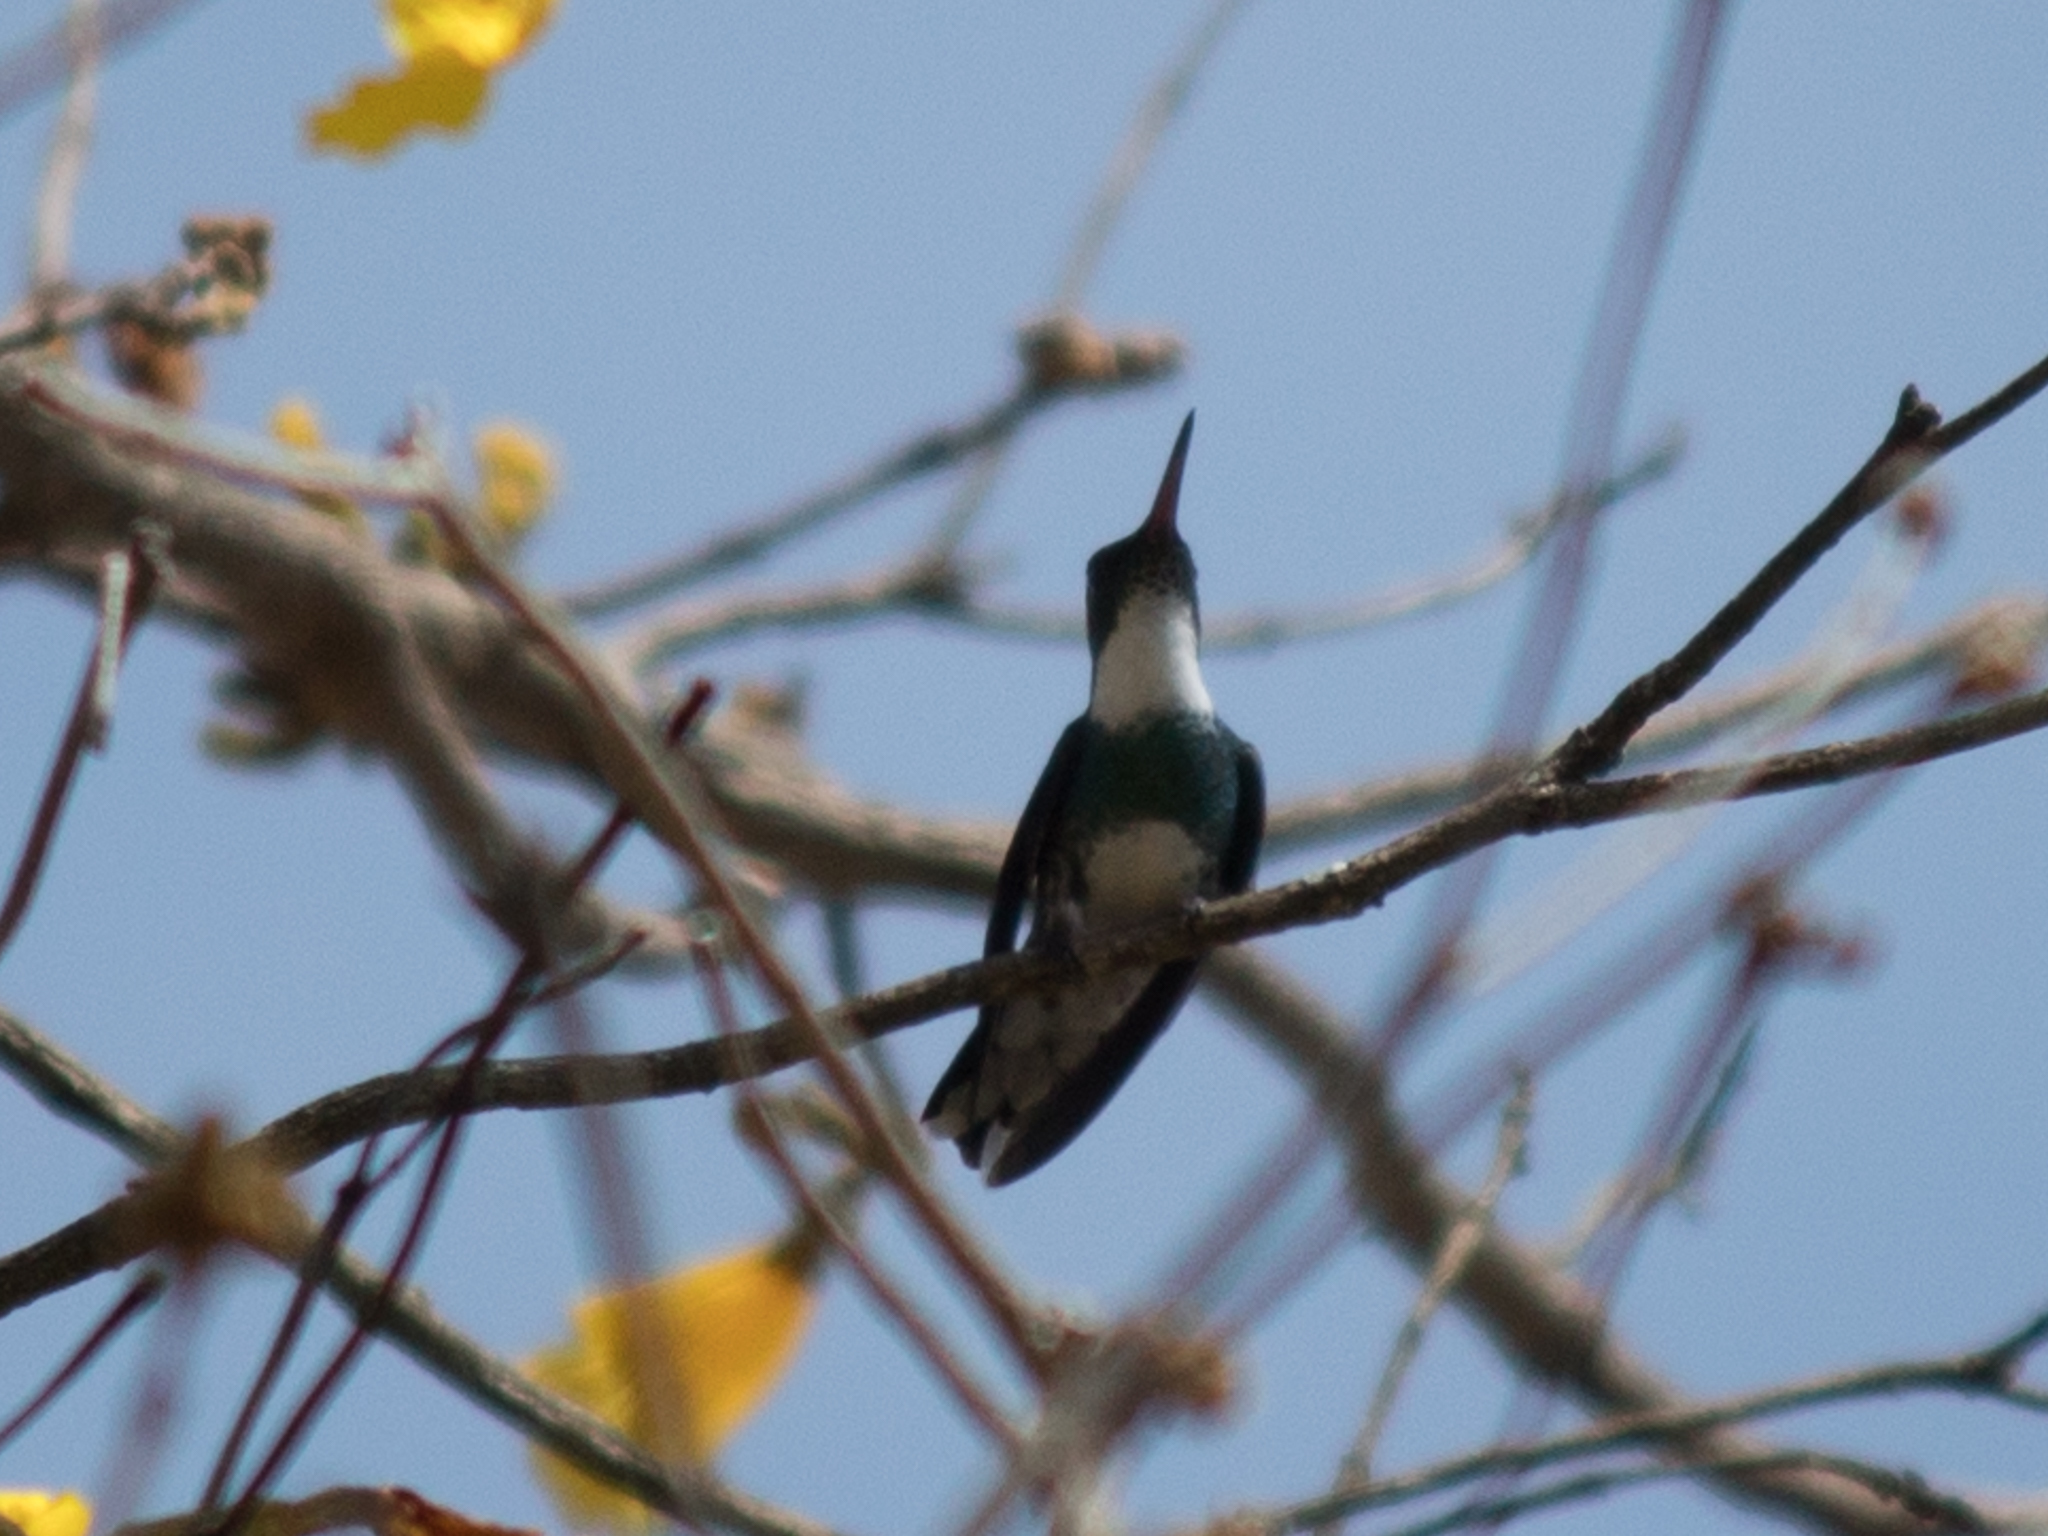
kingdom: Animalia
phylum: Chordata
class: Aves
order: Apodiformes
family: Trochilidae
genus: Leucochloris
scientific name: Leucochloris albicollis
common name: White-throated hummingbird
